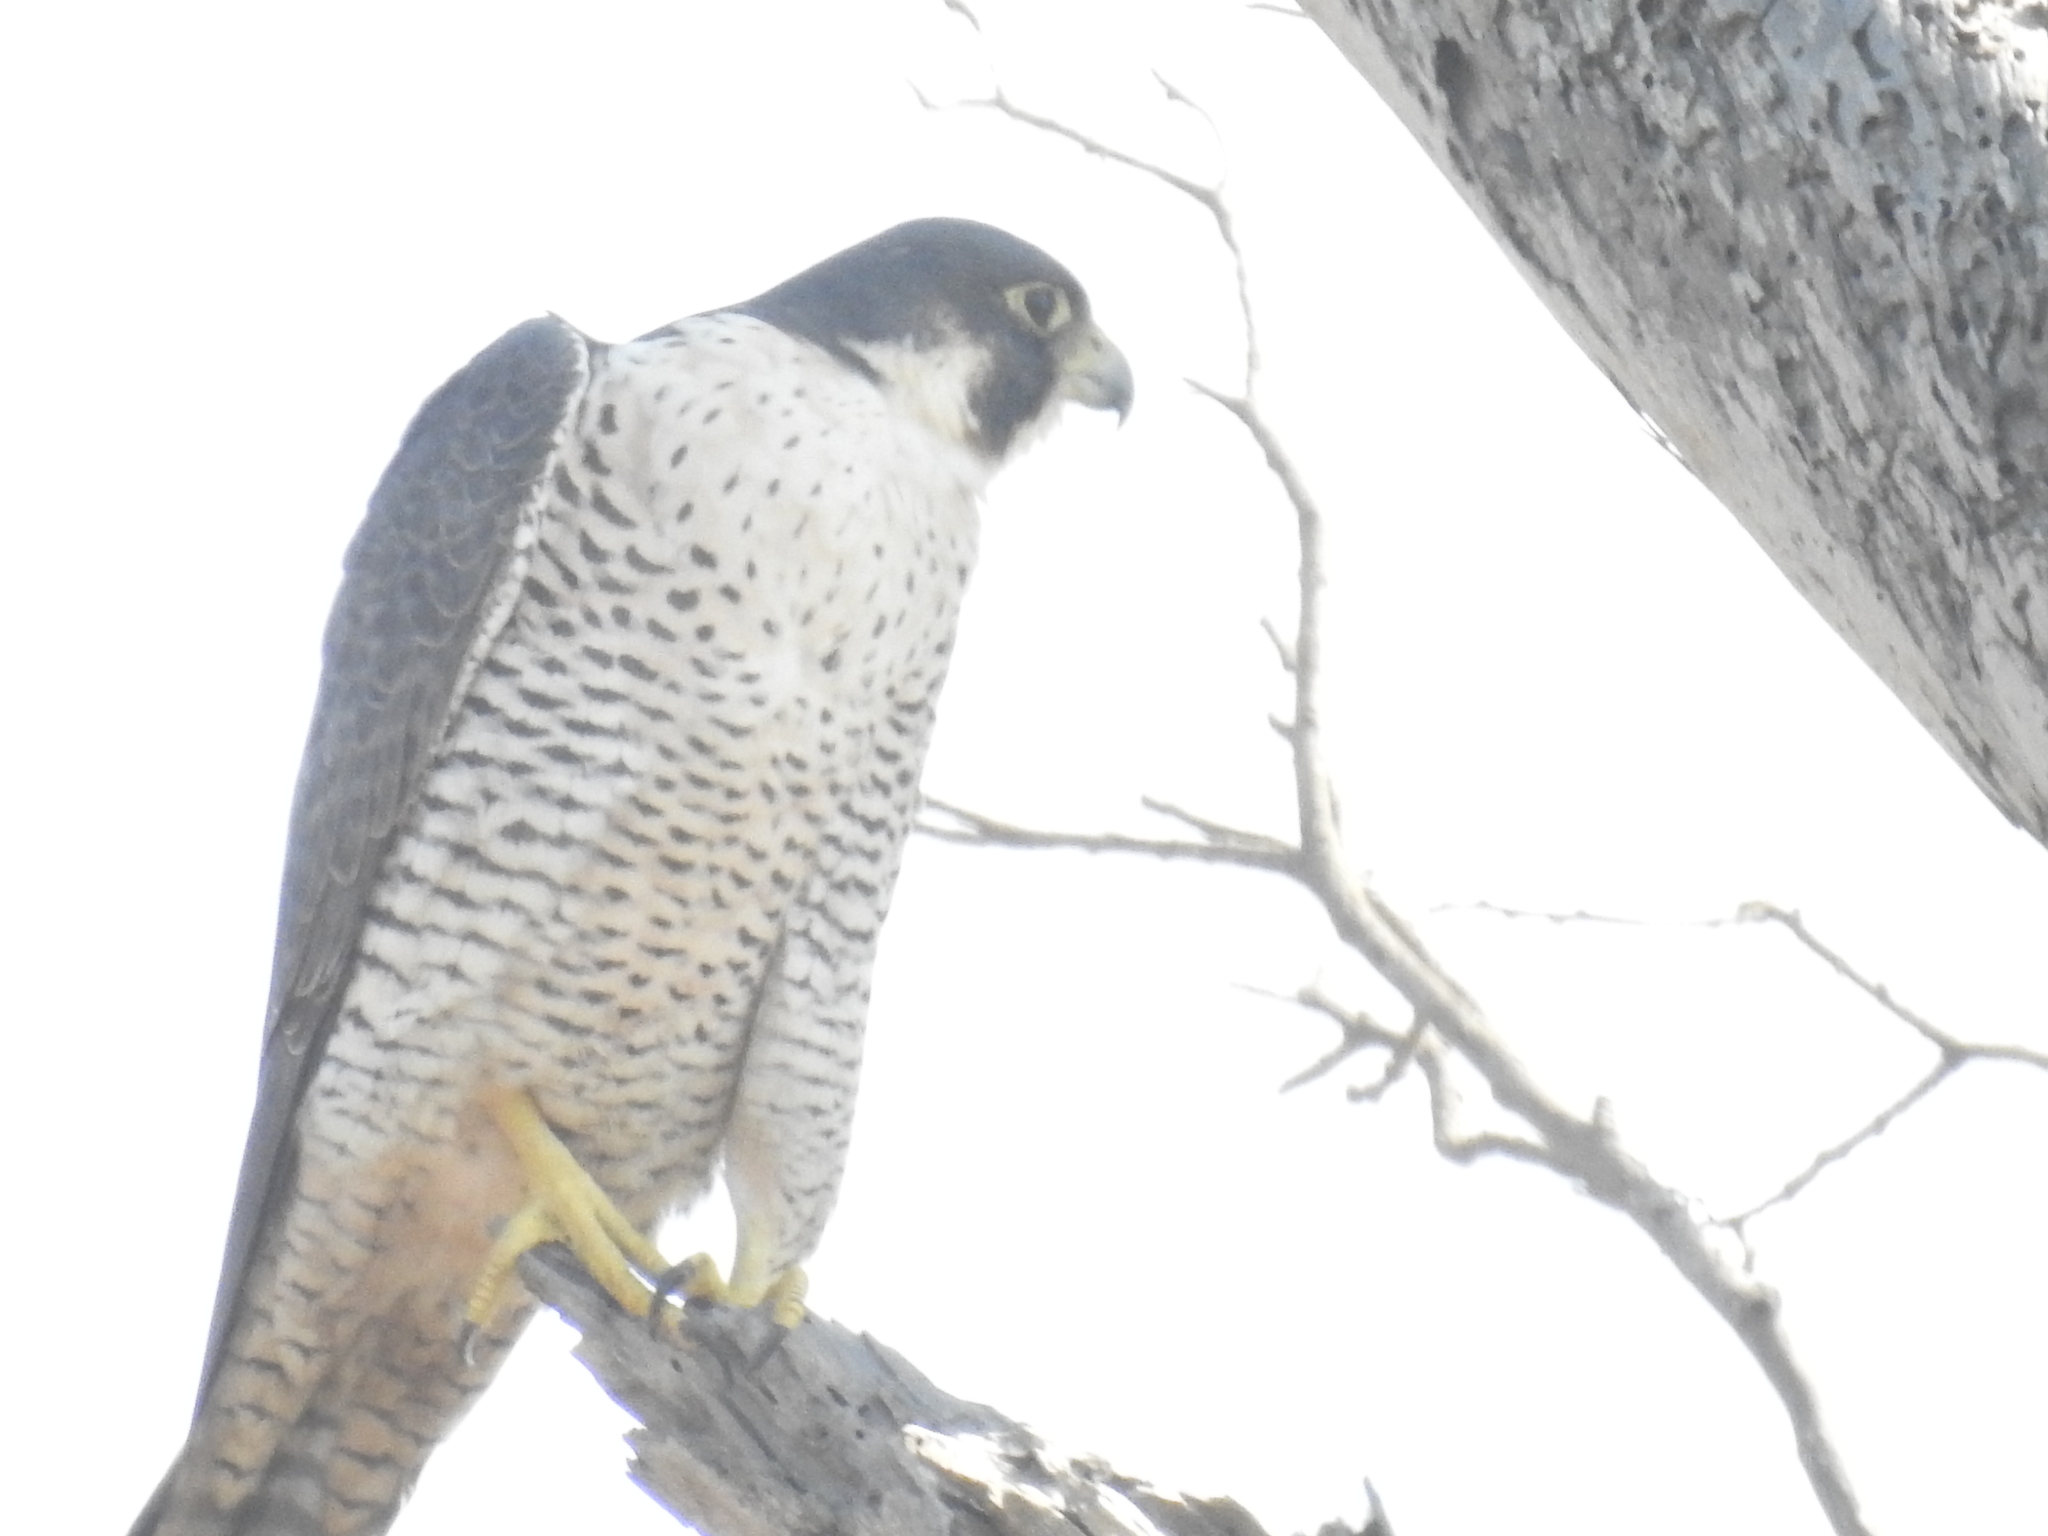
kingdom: Animalia
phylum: Chordata
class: Aves
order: Falconiformes
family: Falconidae
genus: Falco
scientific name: Falco peregrinus
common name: Peregrine falcon
